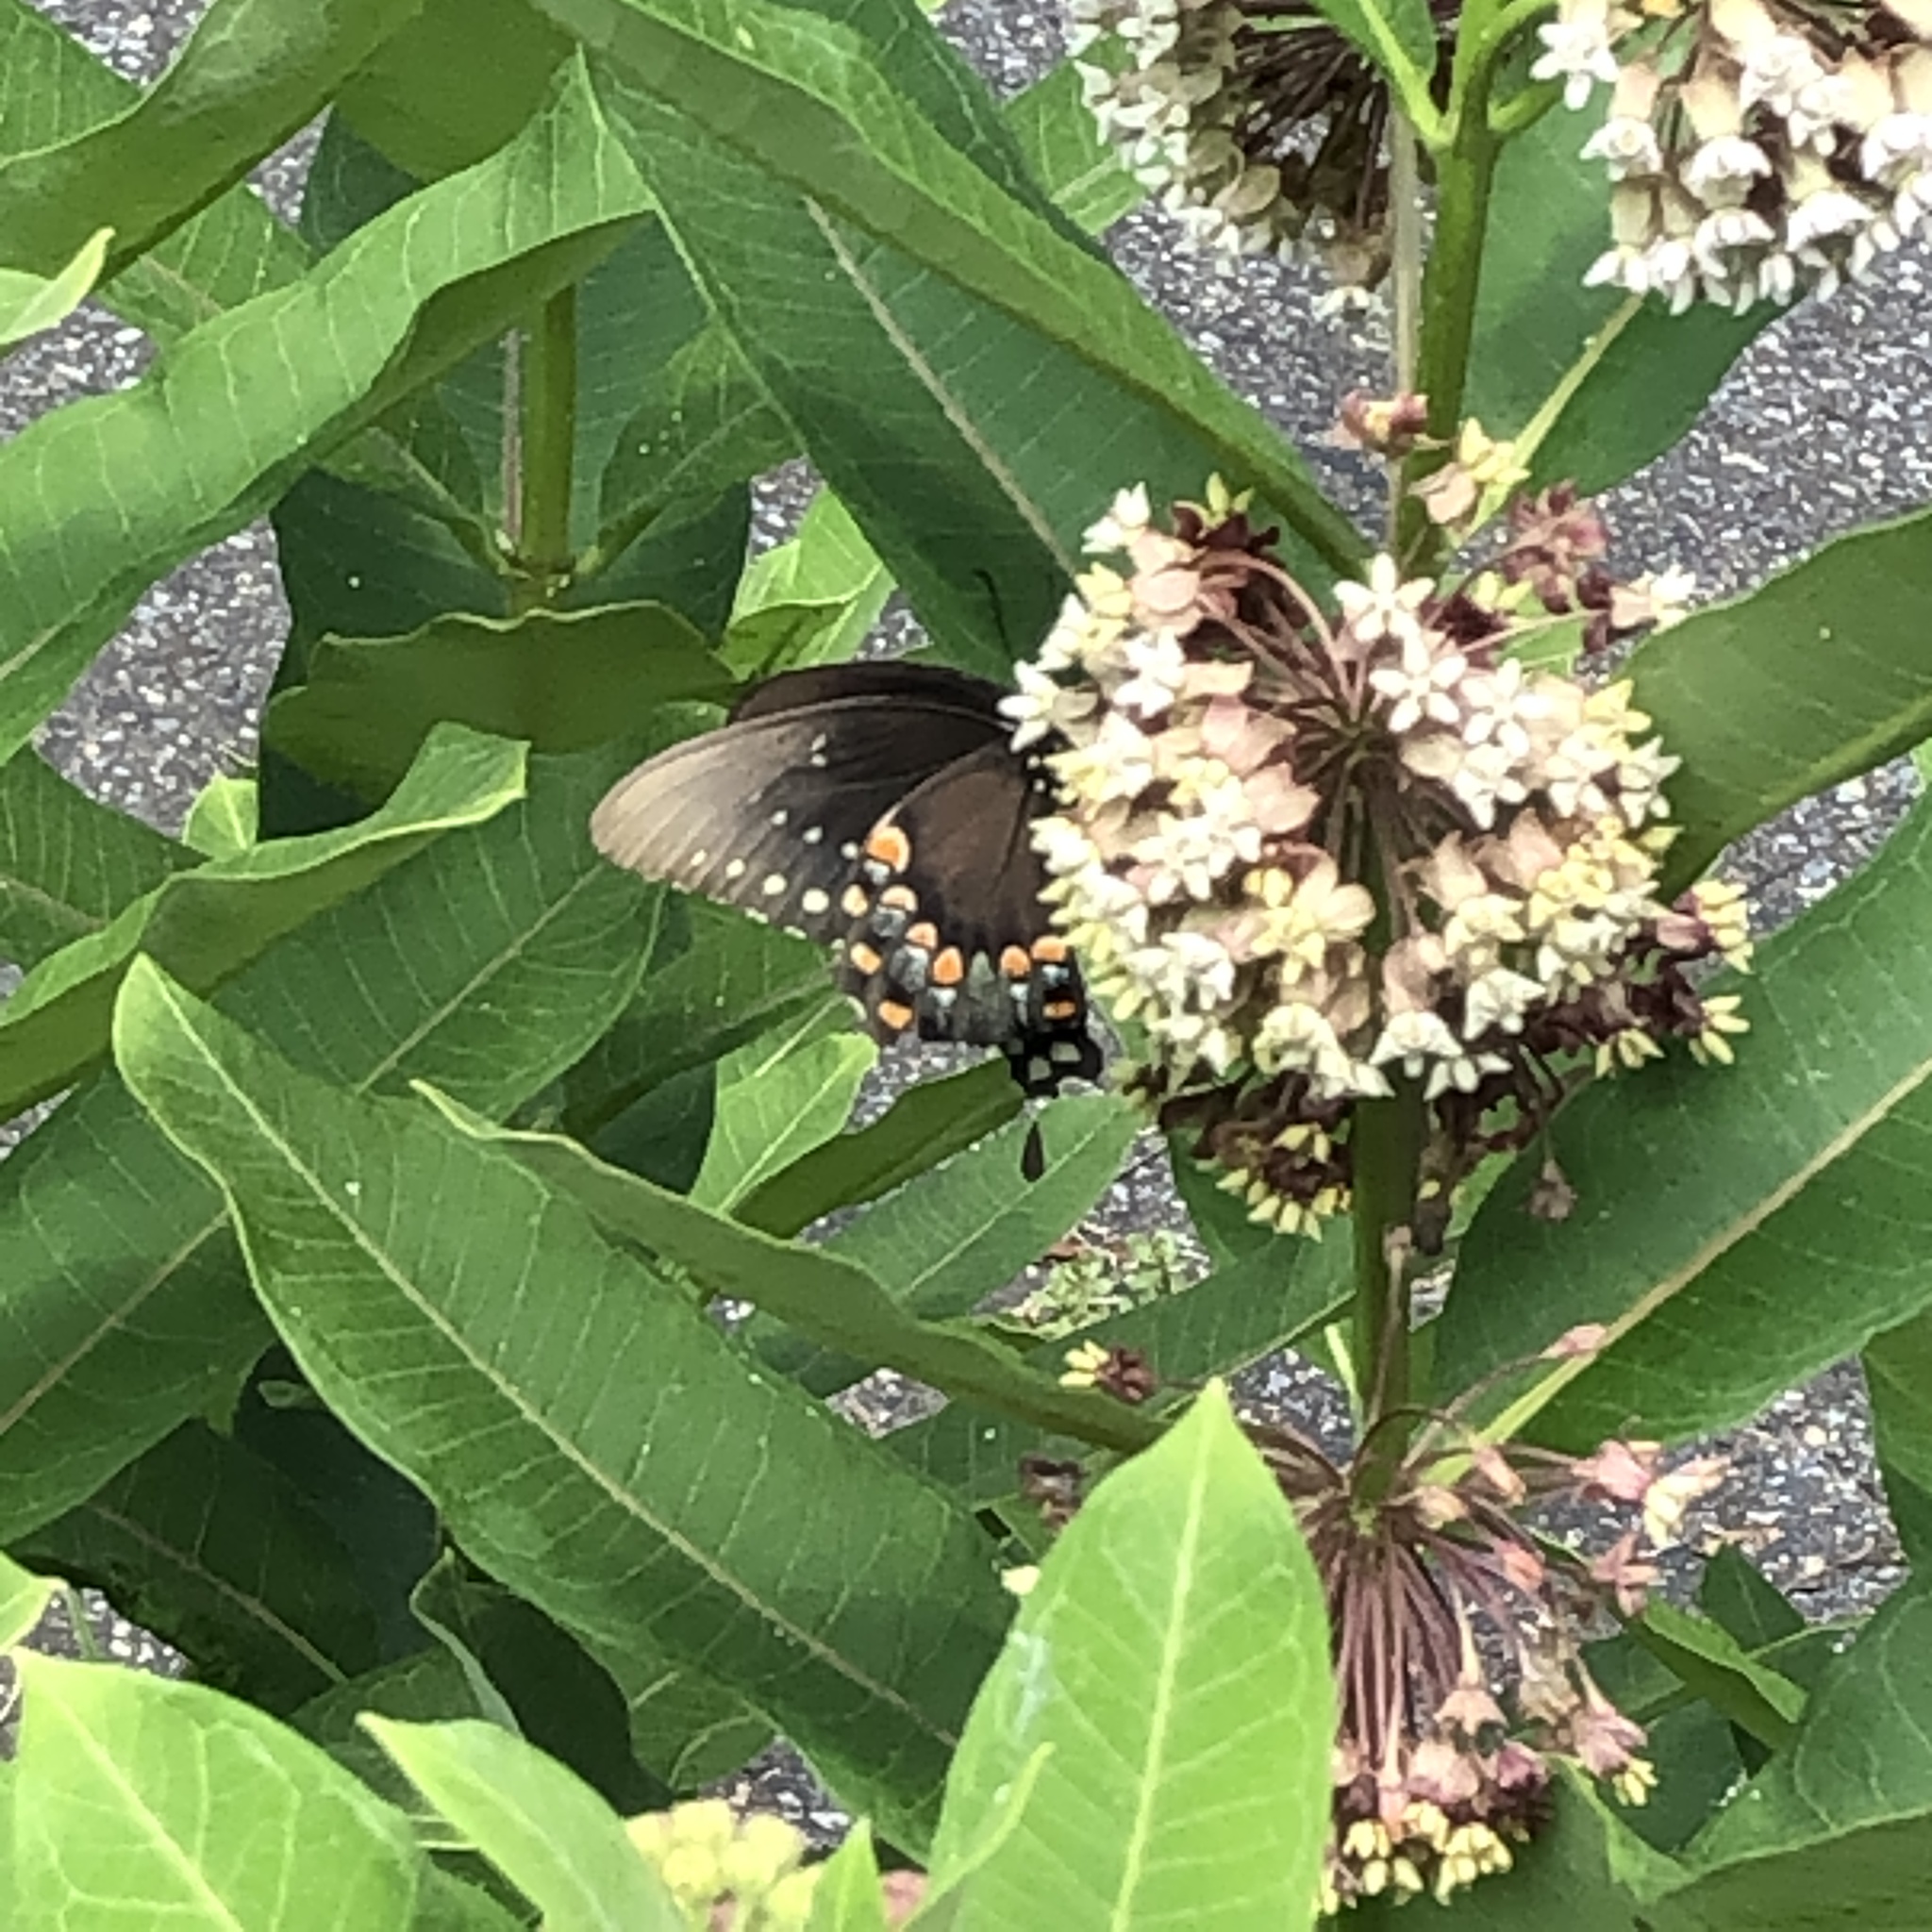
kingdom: Animalia
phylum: Arthropoda
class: Insecta
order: Lepidoptera
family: Papilionidae
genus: Papilio
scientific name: Papilio troilus
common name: Spicebush swallowtail
